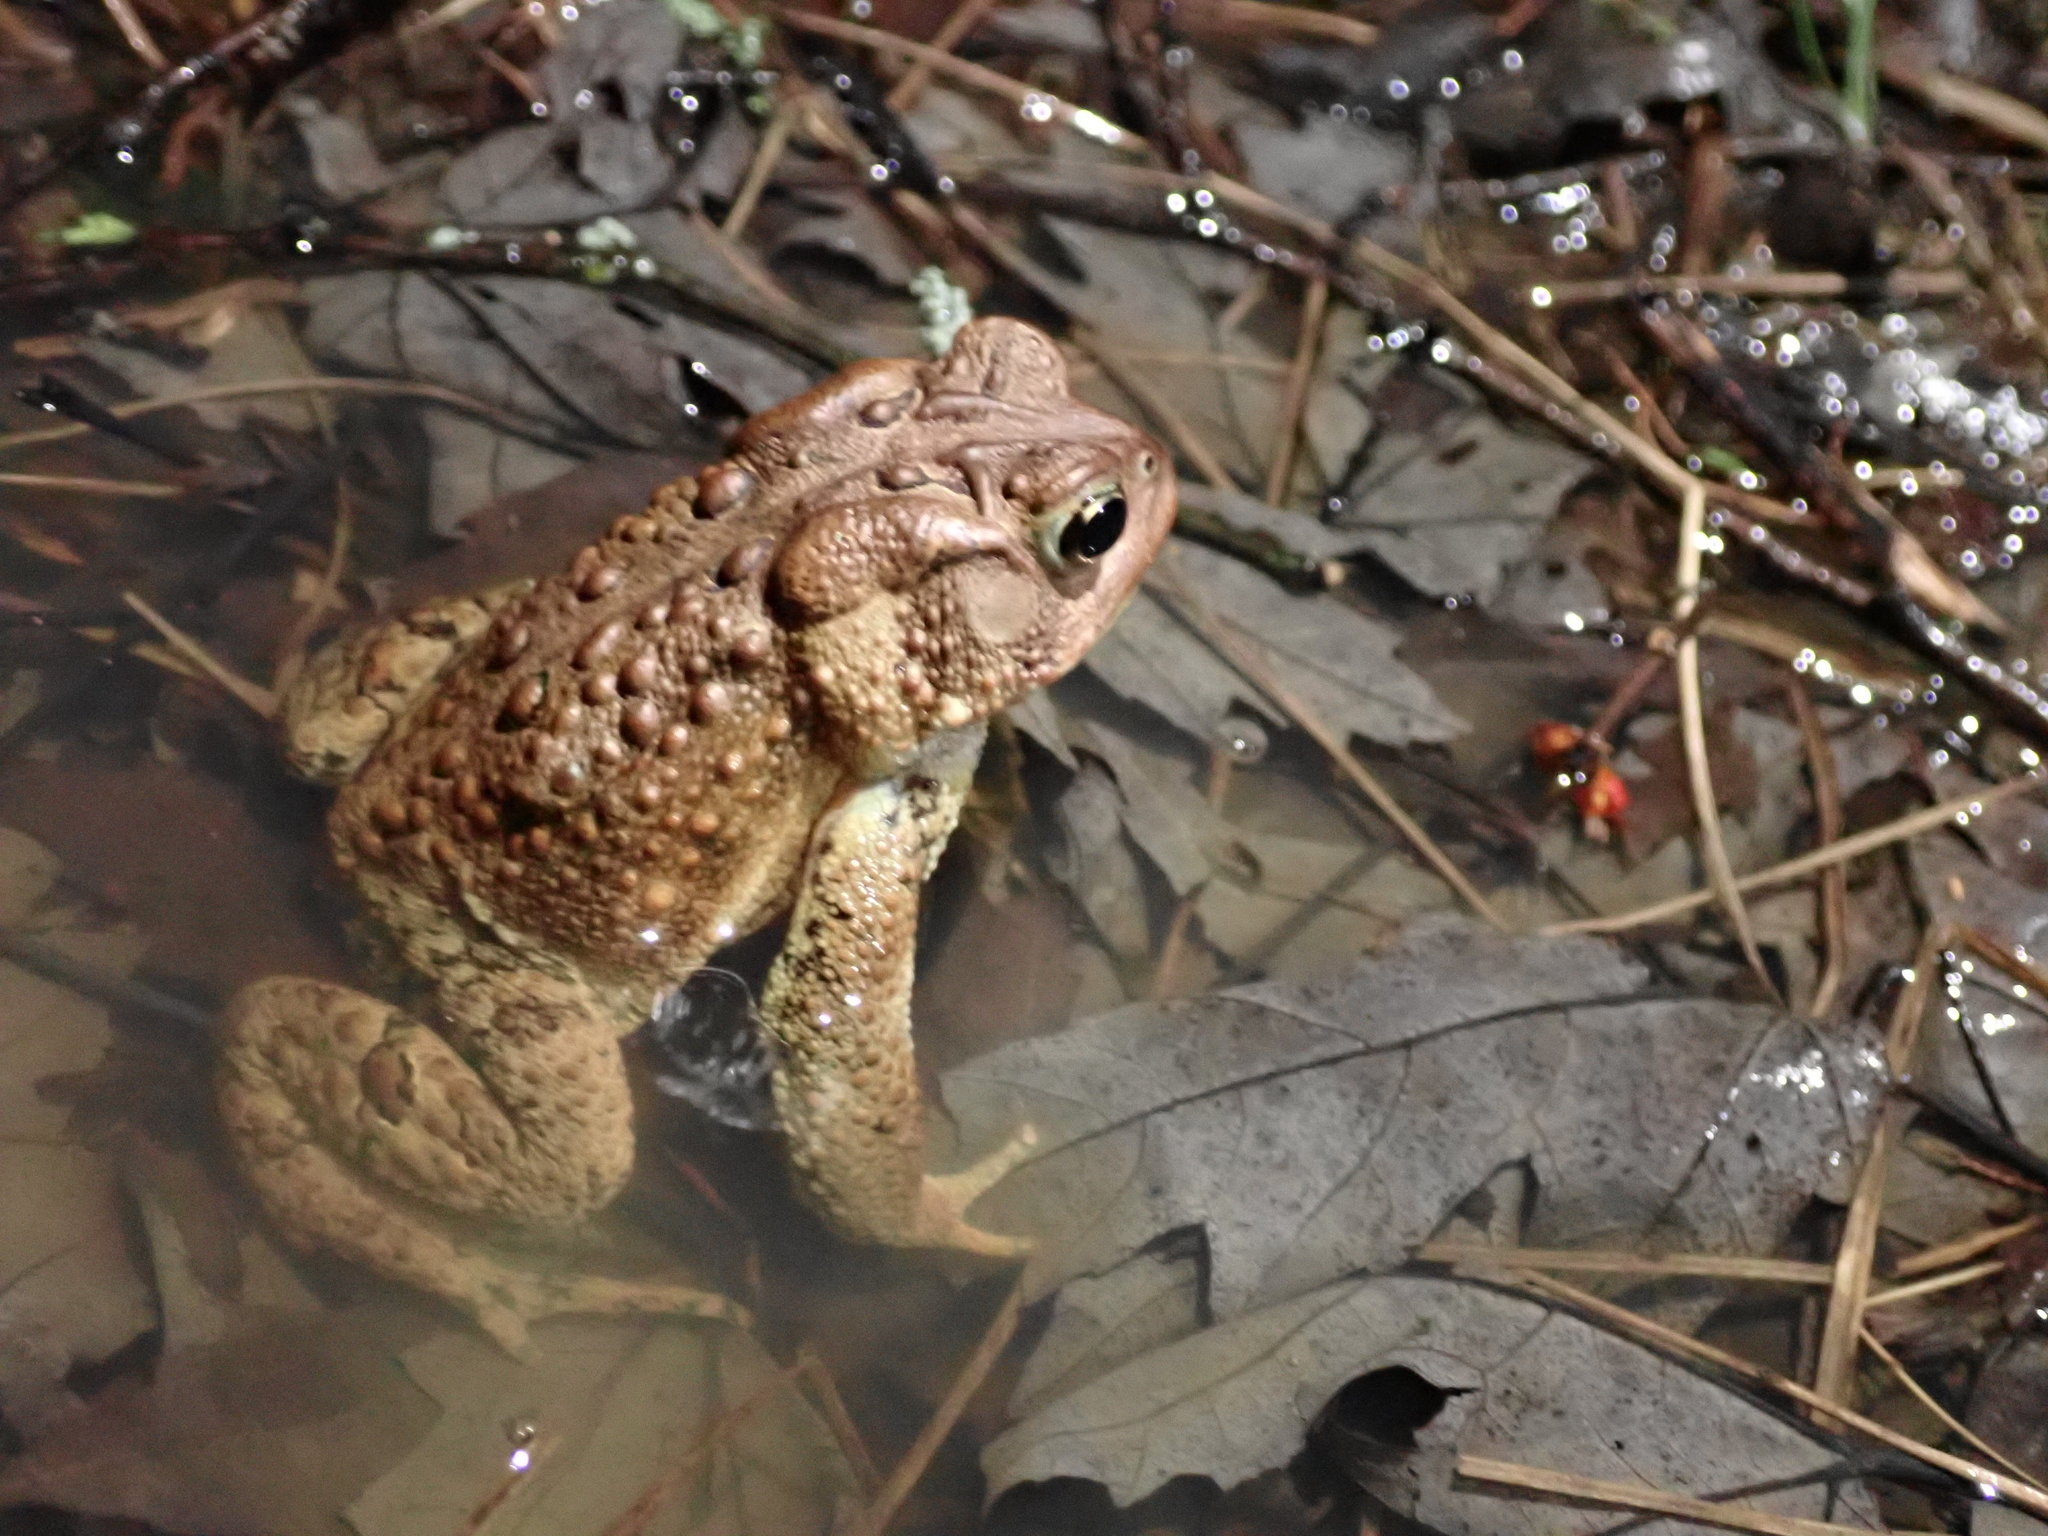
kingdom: Animalia
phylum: Chordata
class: Amphibia
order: Anura
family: Bufonidae
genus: Anaxyrus
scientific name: Anaxyrus americanus
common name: American toad
